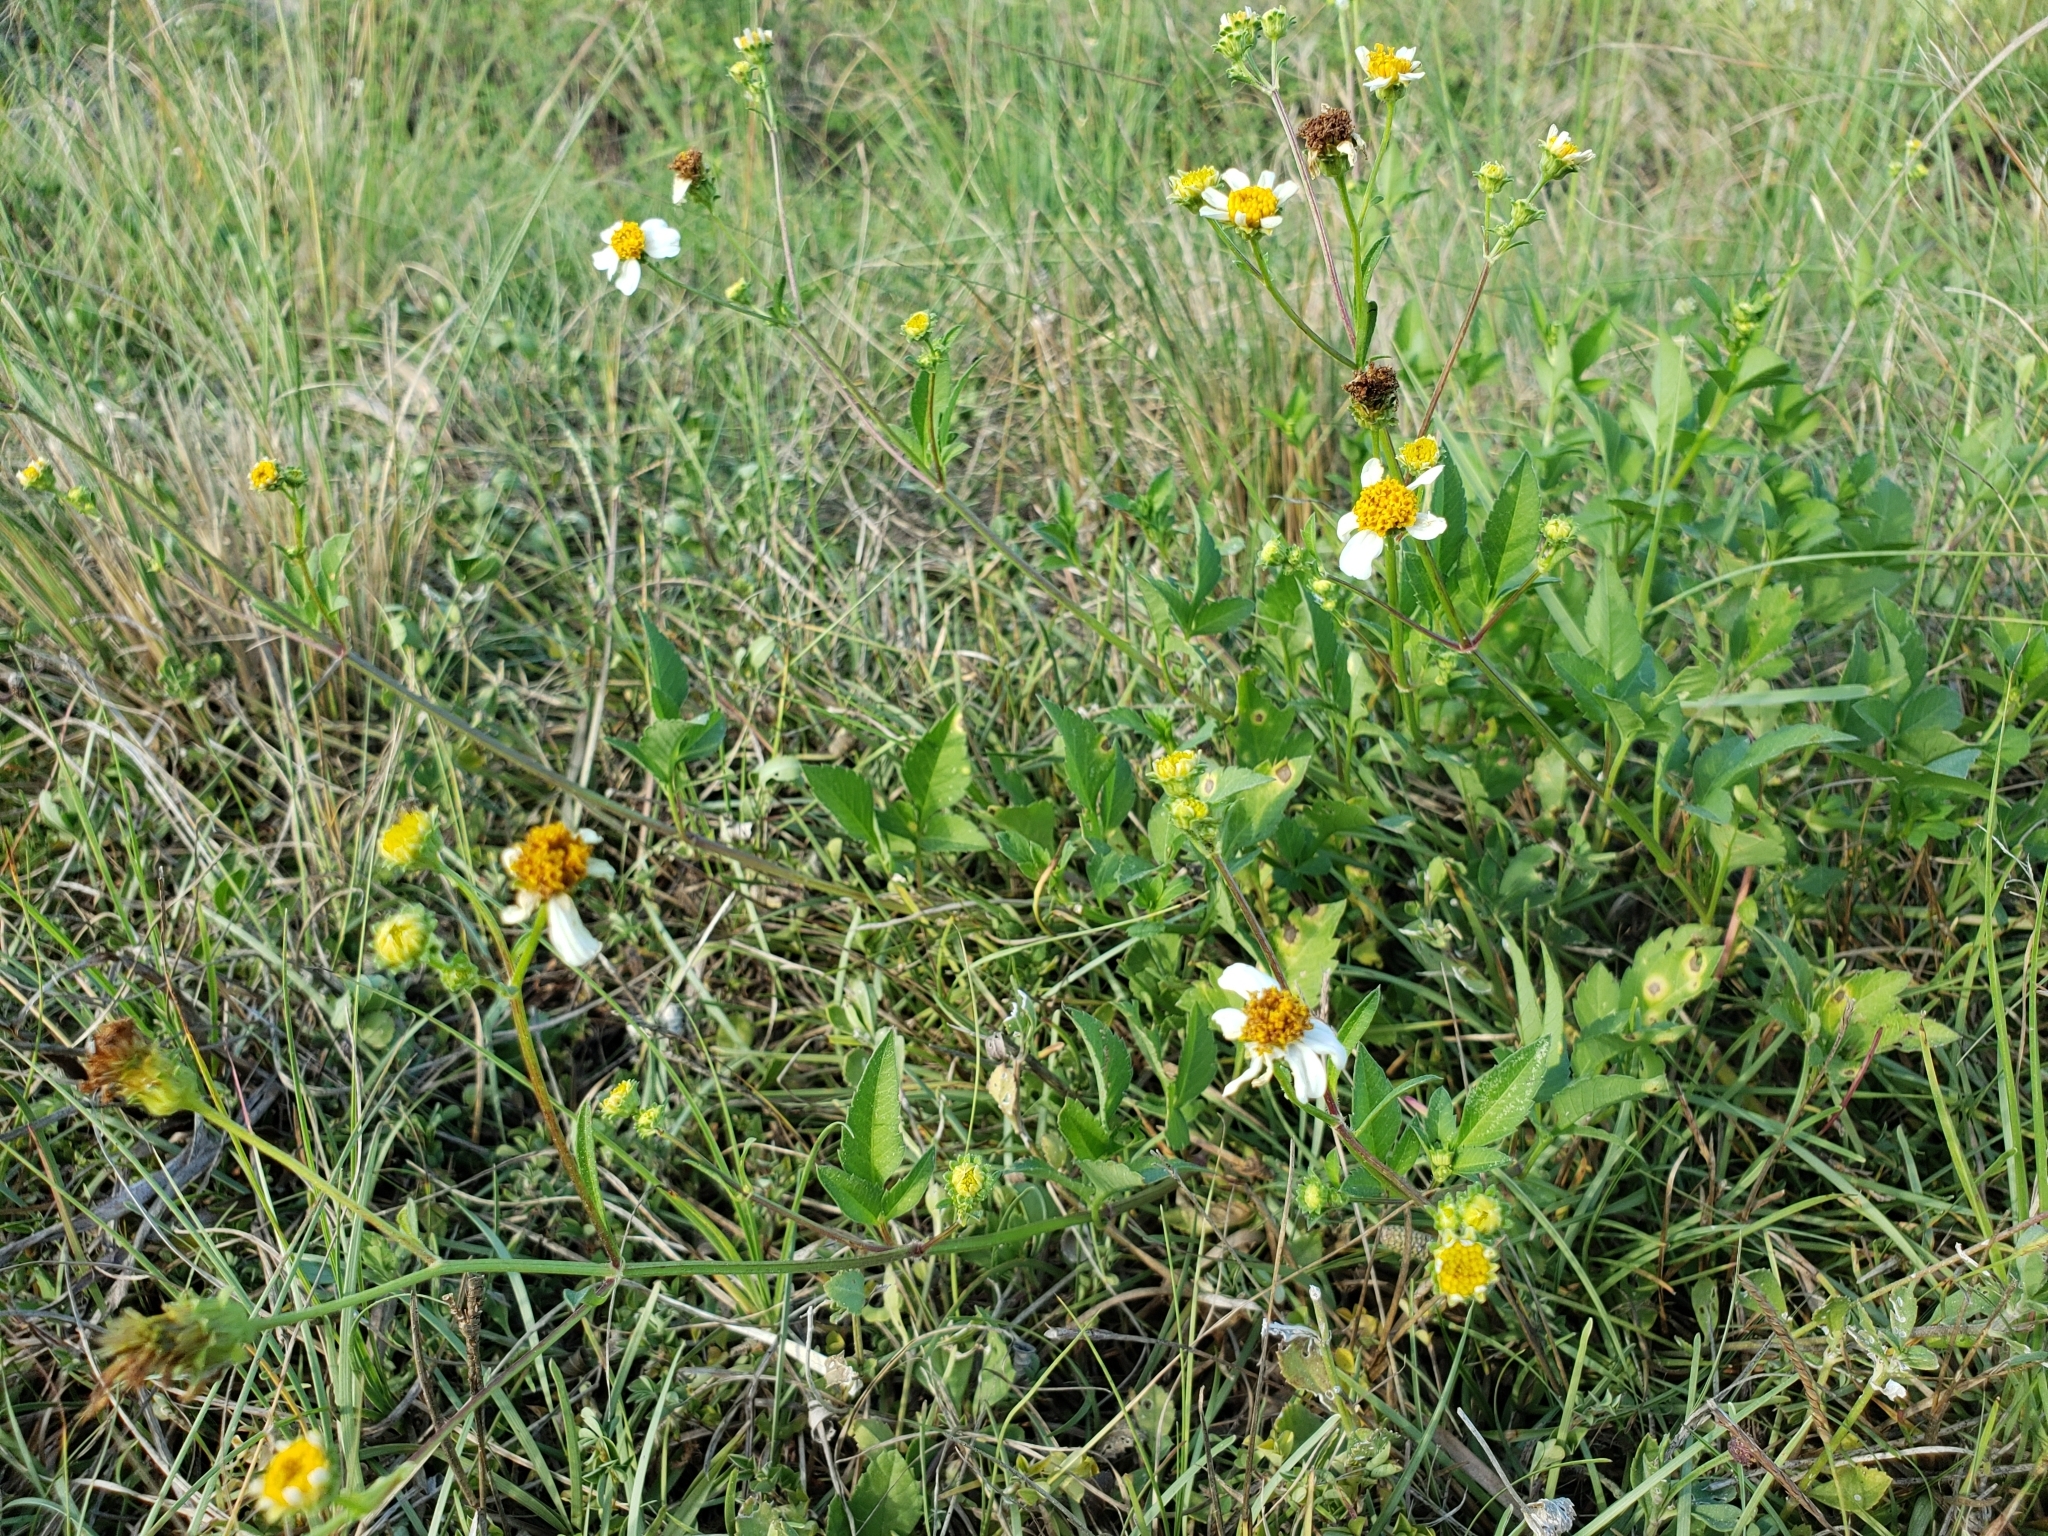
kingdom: Plantae
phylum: Tracheophyta
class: Magnoliopsida
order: Asterales
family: Asteraceae
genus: Bidens
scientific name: Bidens alba
